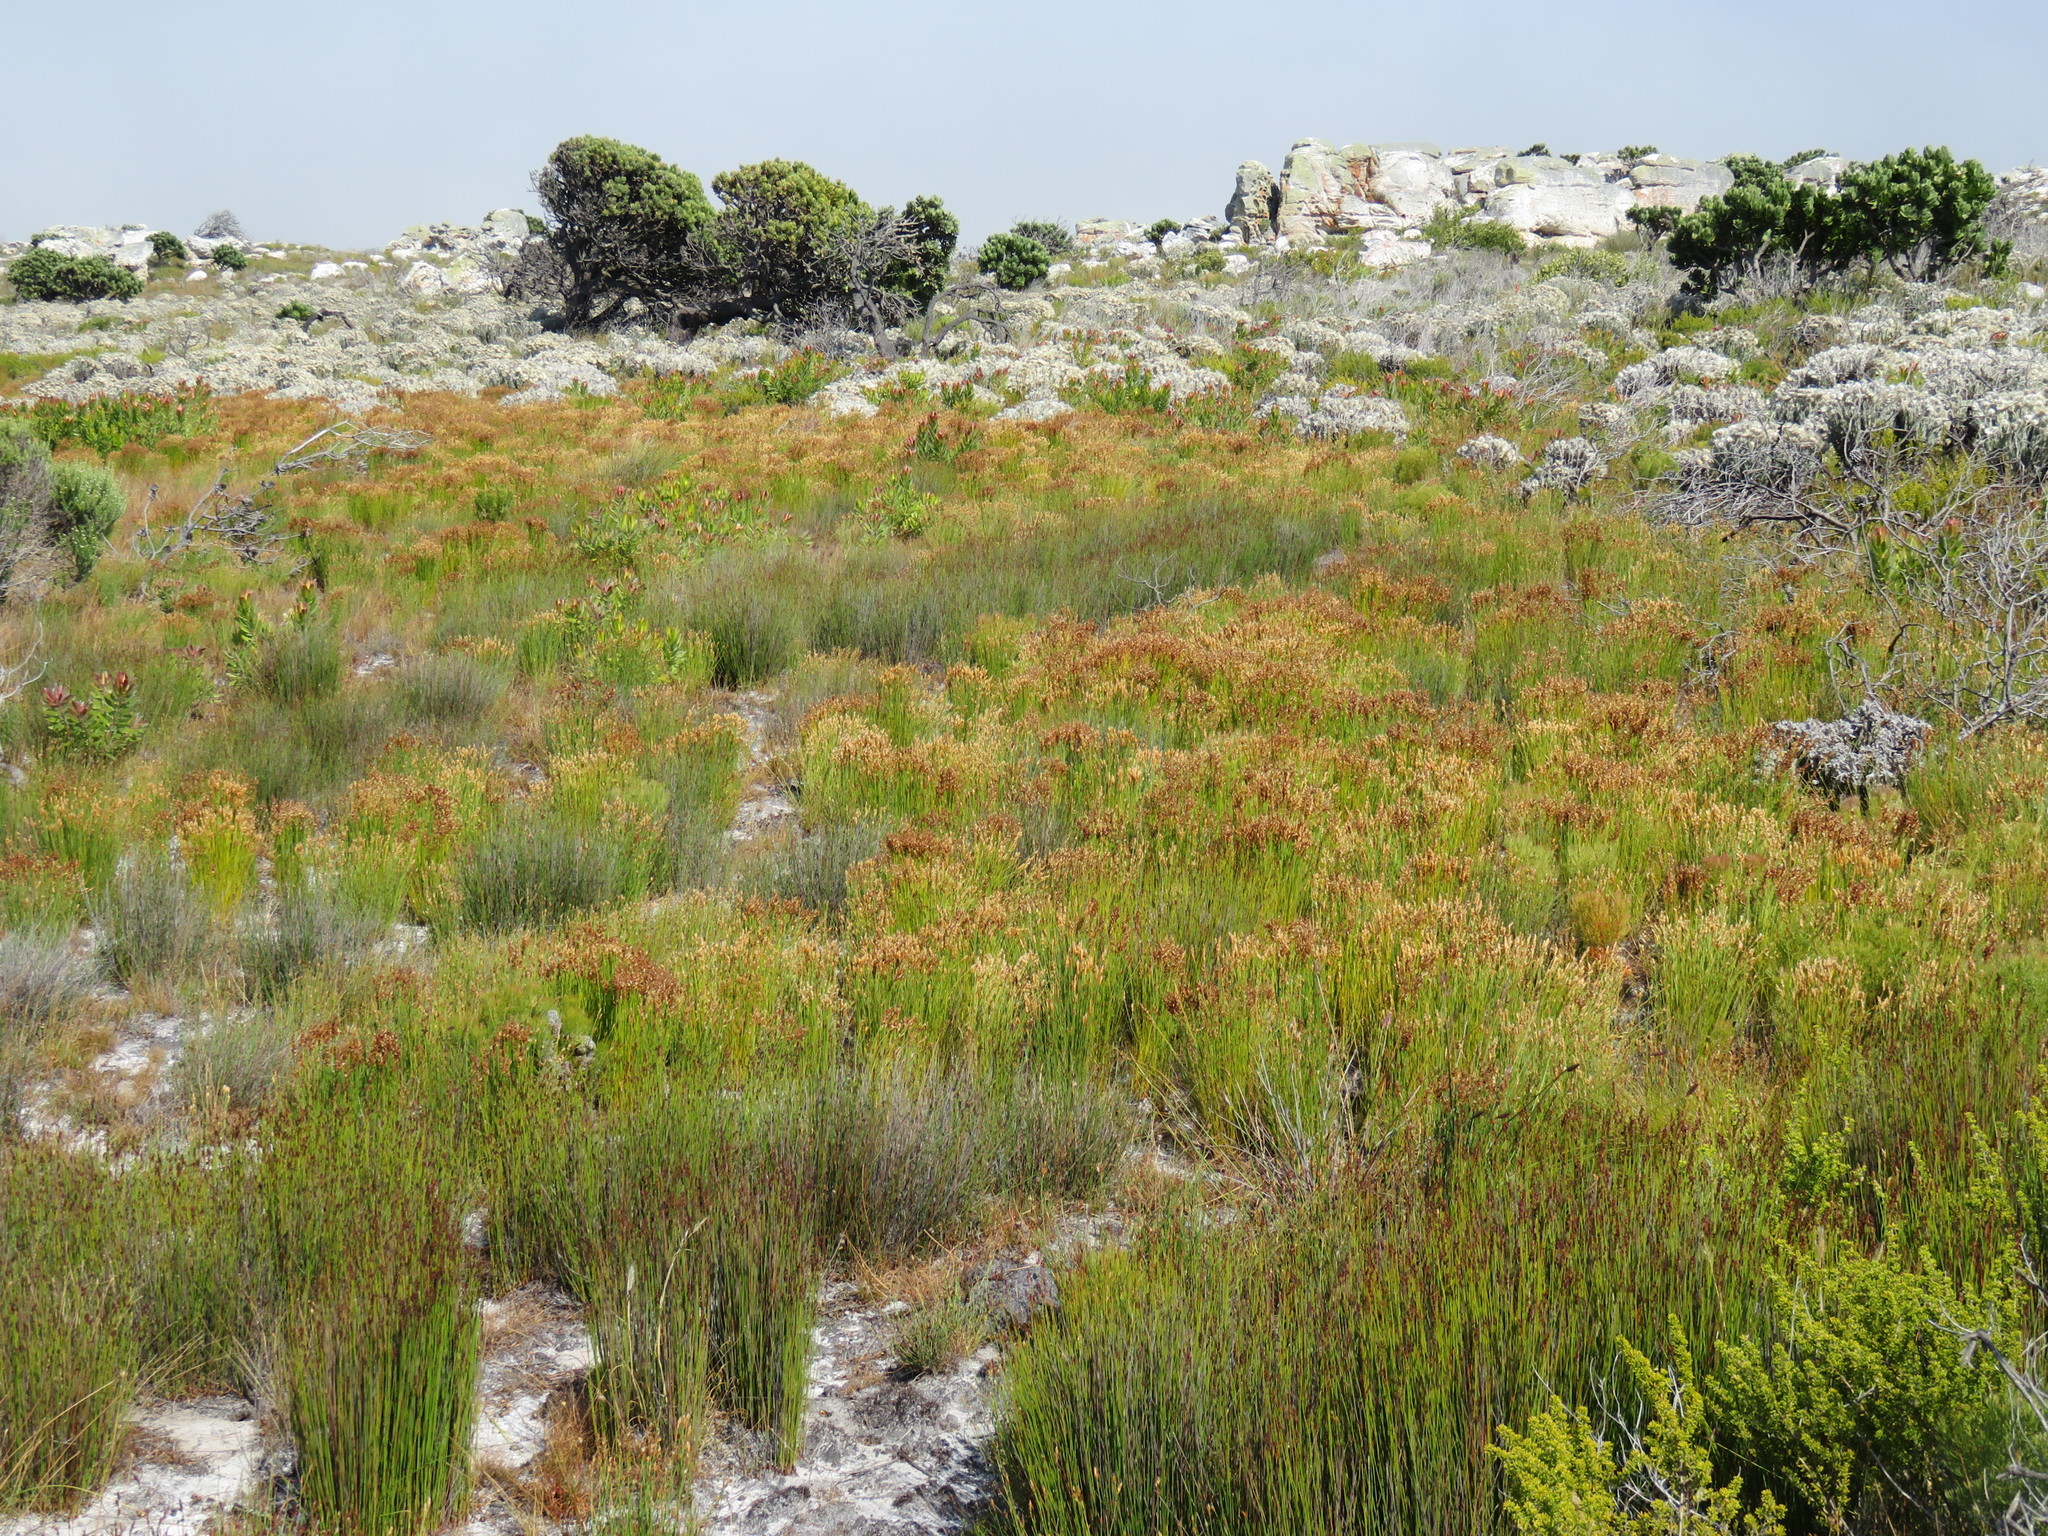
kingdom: Plantae
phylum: Tracheophyta
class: Liliopsida
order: Poales
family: Restionaceae
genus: Elegia
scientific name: Elegia filacea
